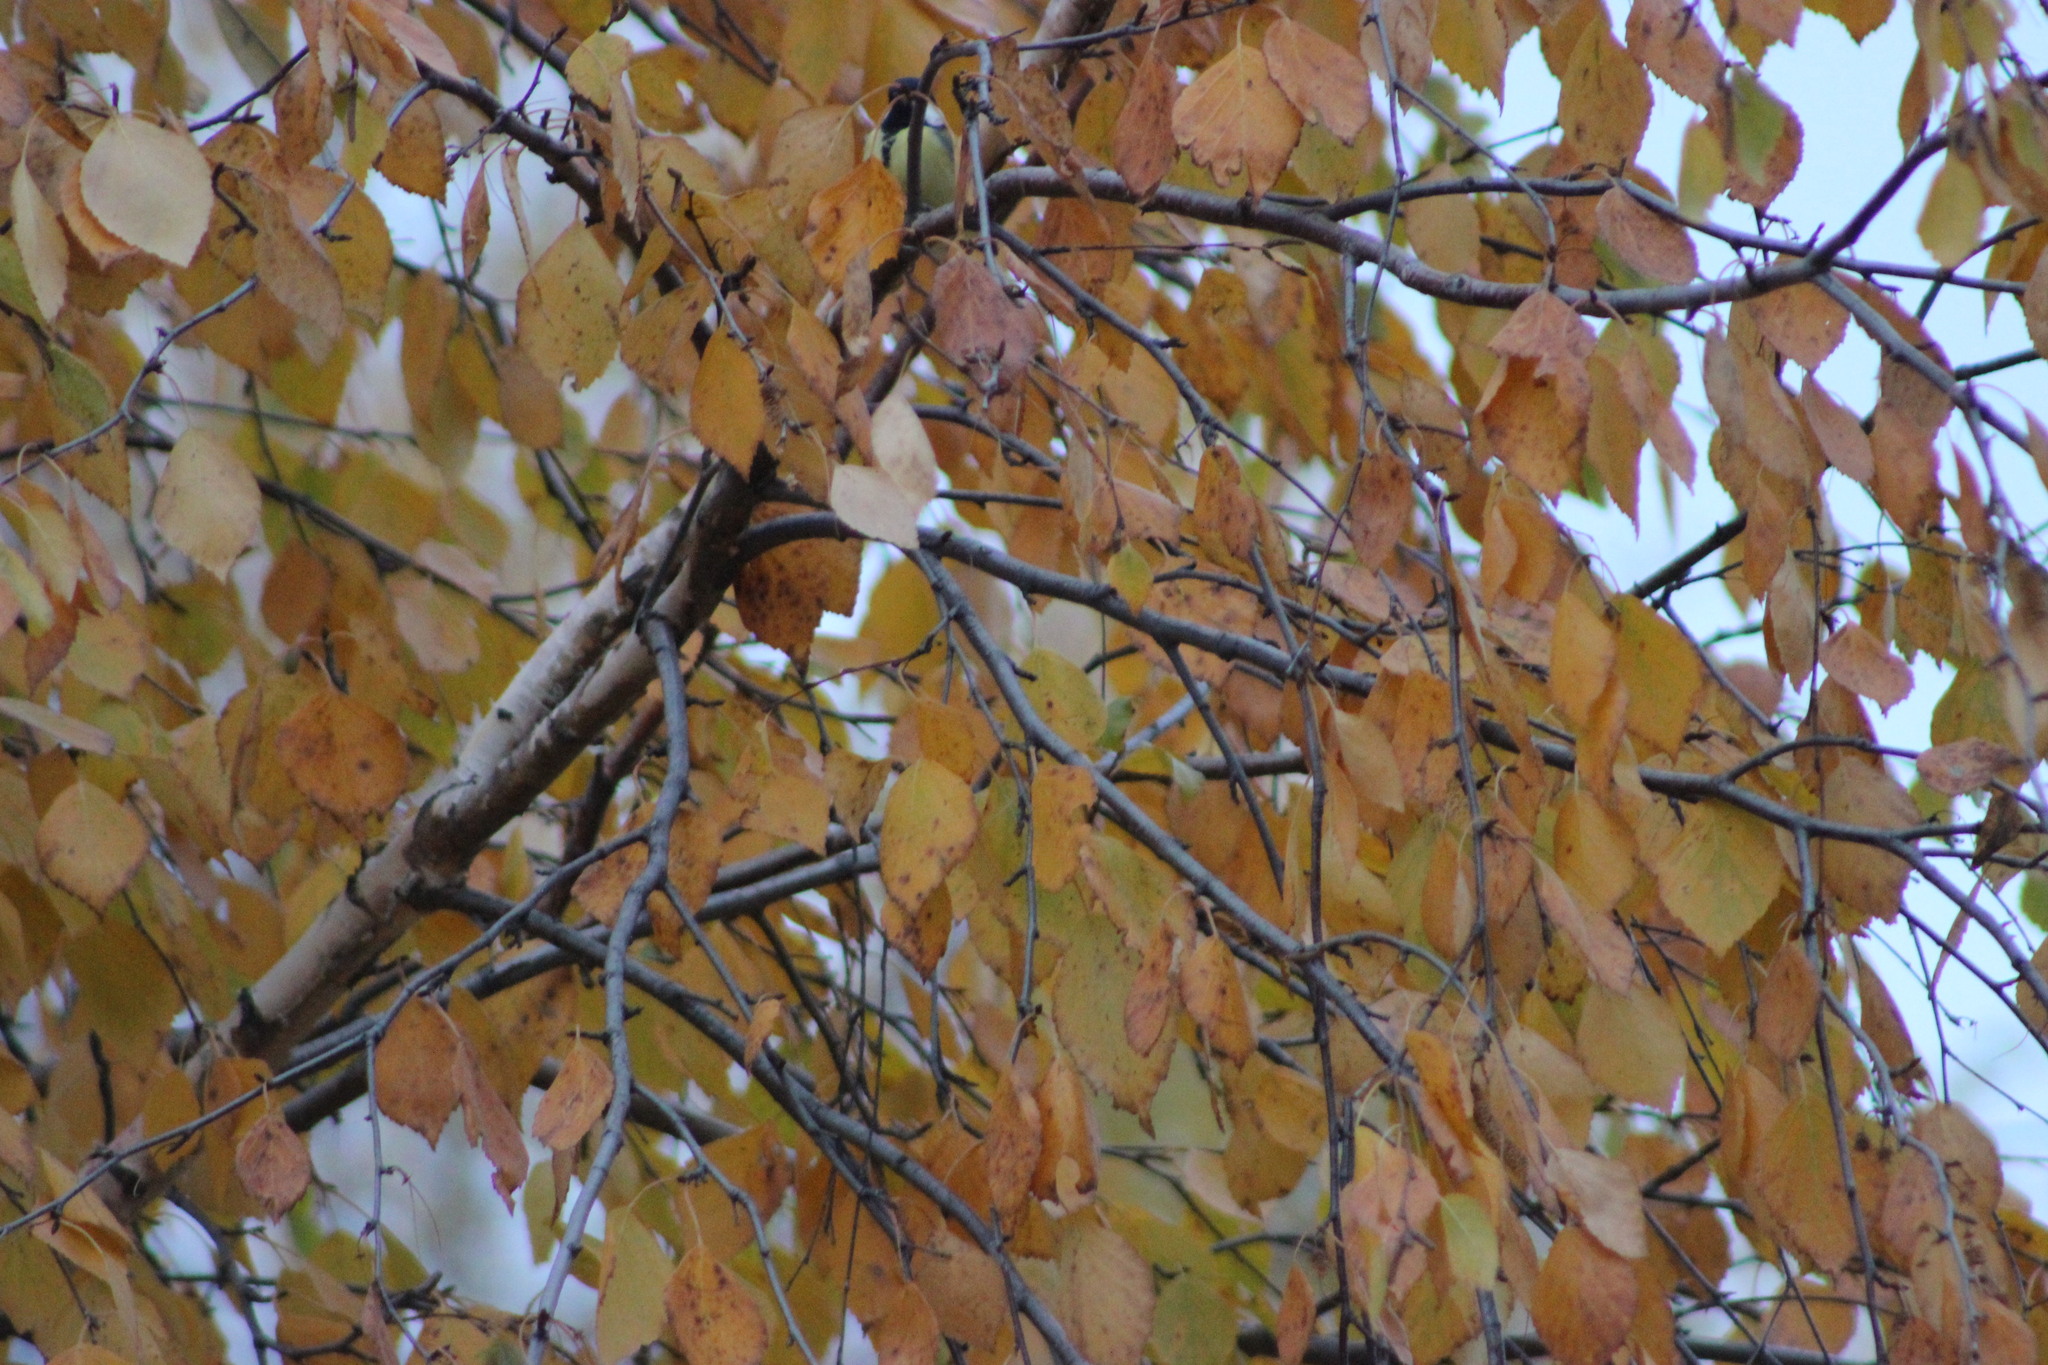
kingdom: Animalia
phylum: Chordata
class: Aves
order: Passeriformes
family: Paridae
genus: Parus
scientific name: Parus major
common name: Great tit
